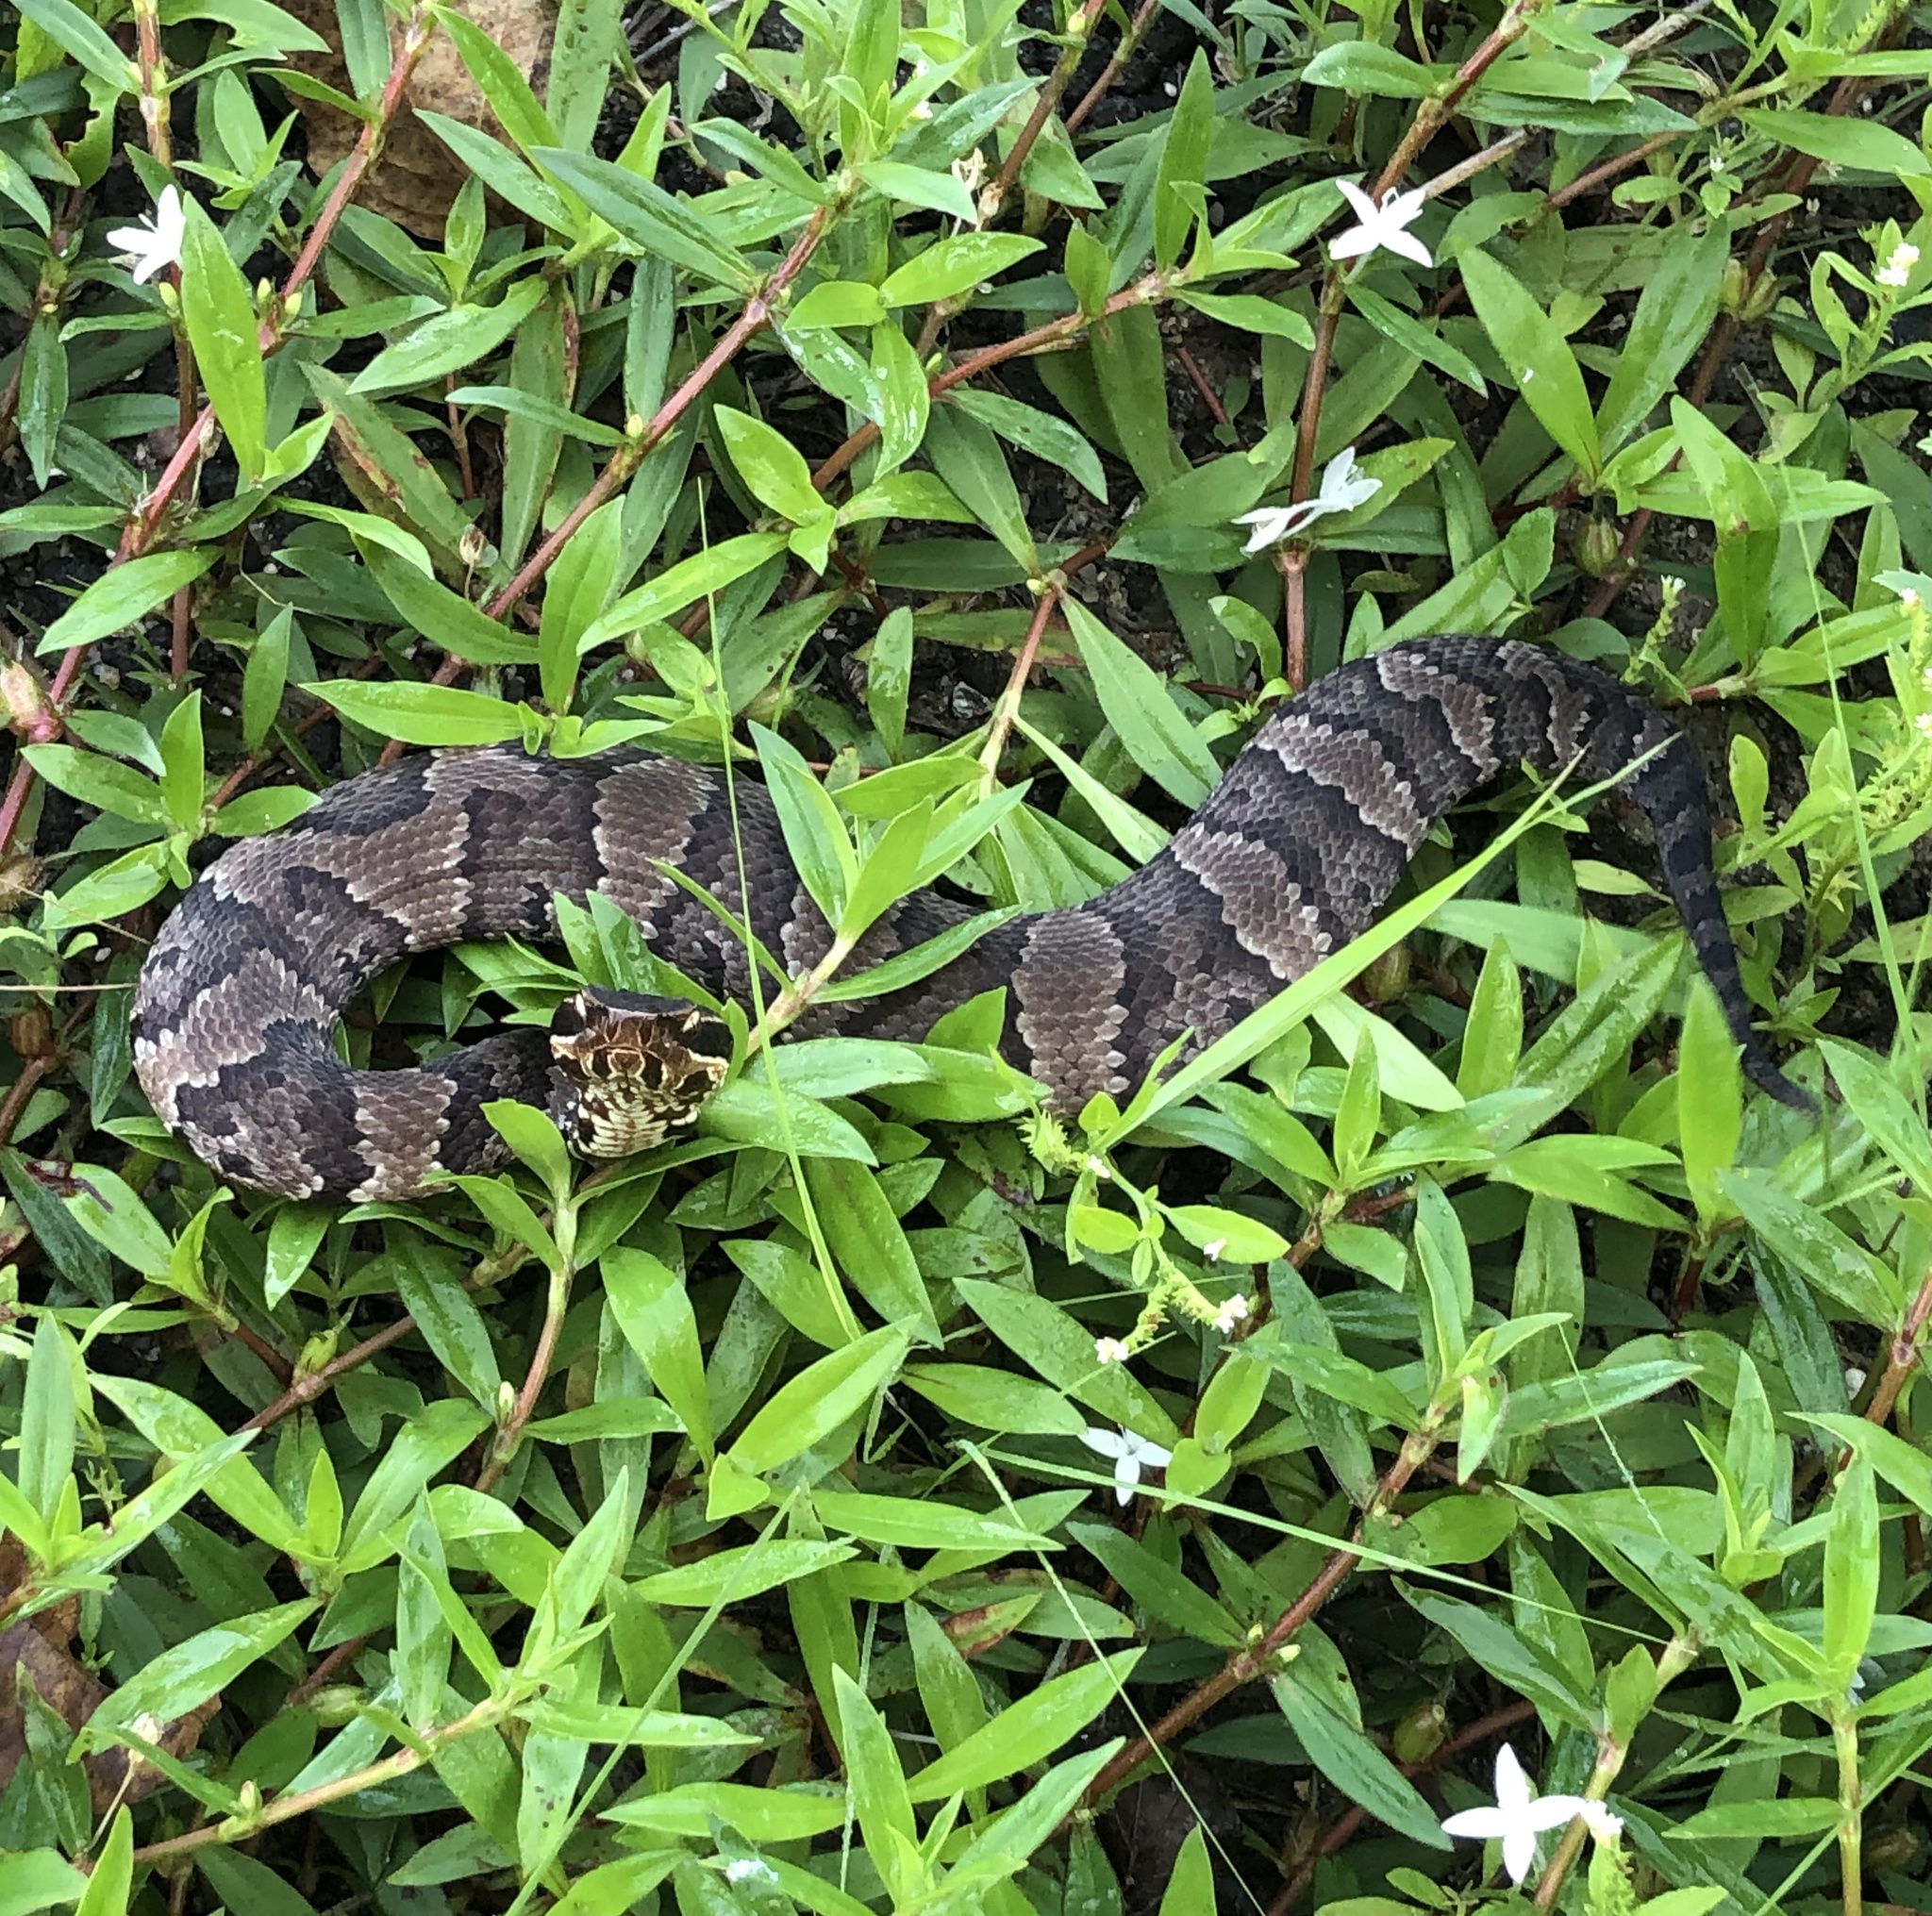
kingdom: Animalia
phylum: Chordata
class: Squamata
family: Viperidae
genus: Agkistrodon
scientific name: Agkistrodon piscivorus
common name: Cottonmouth
